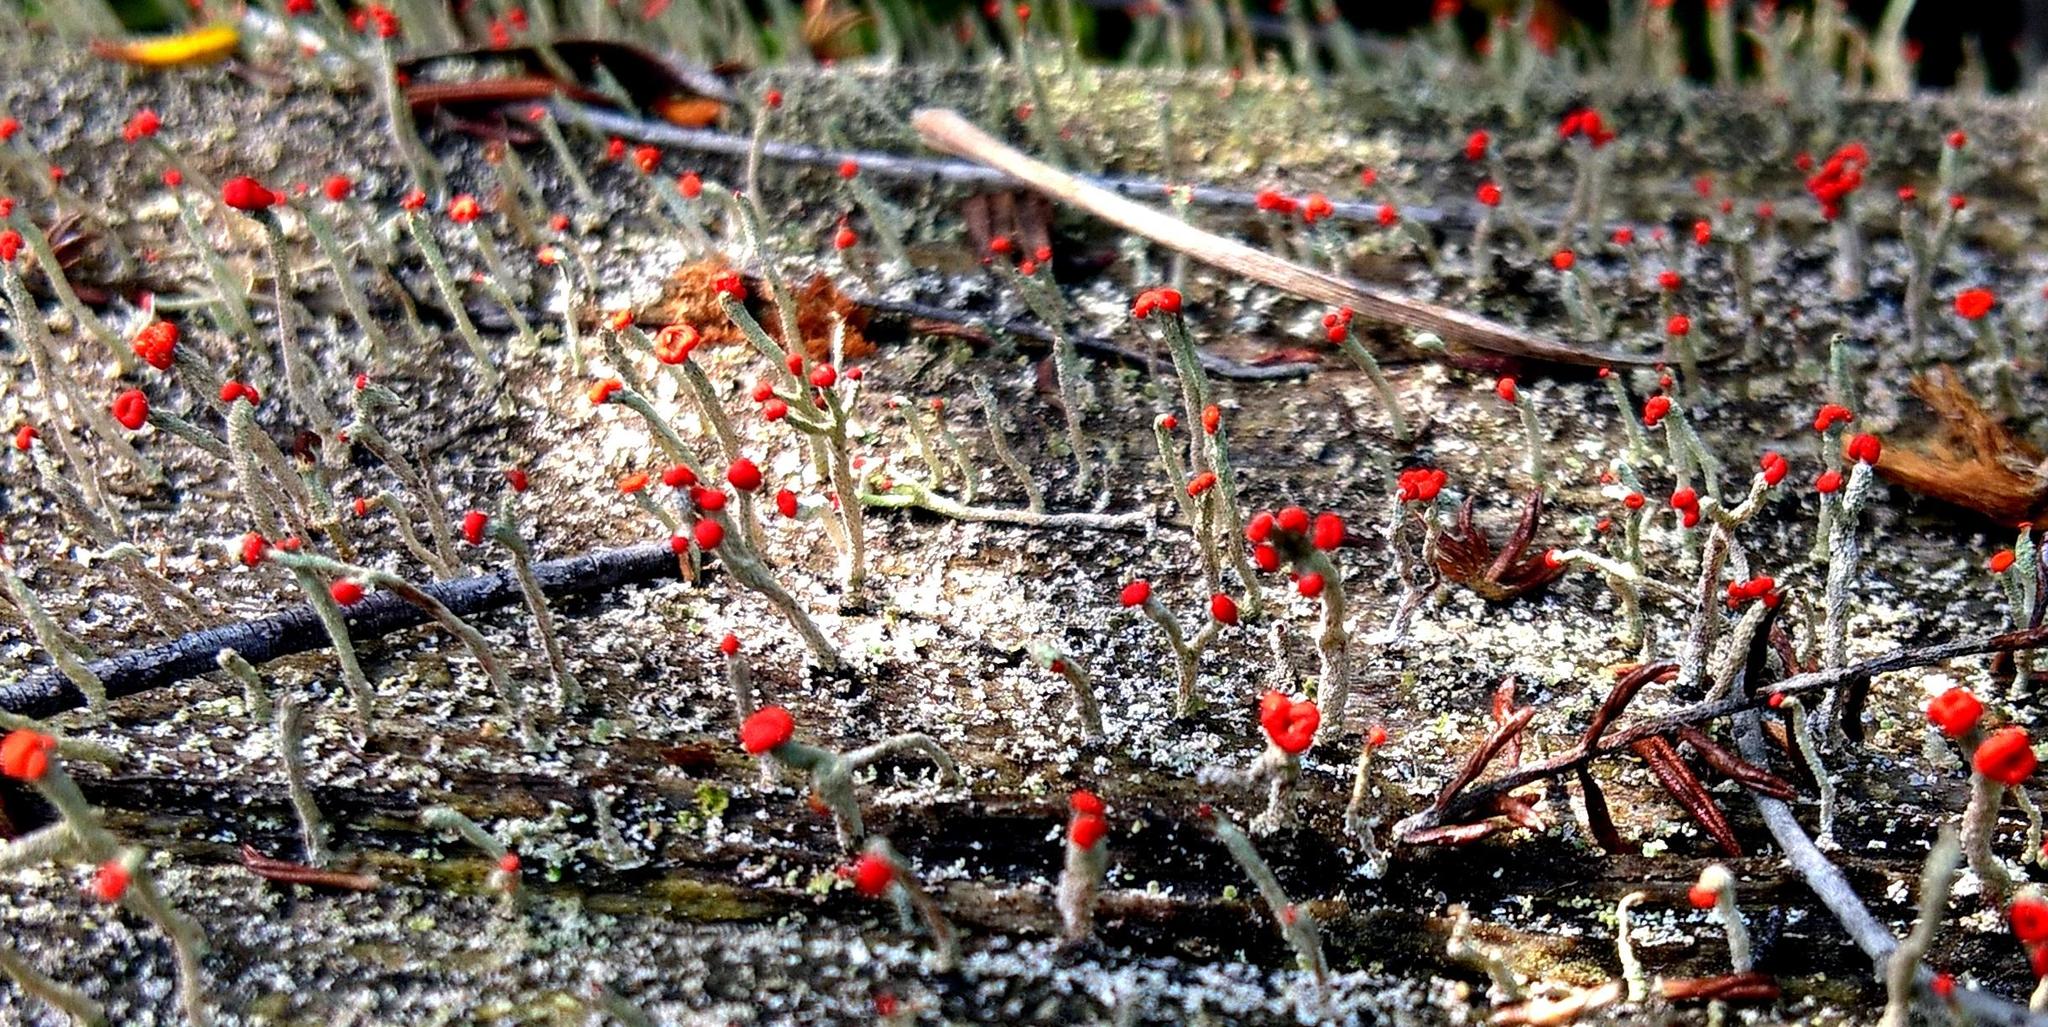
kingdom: Fungi
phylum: Ascomycota
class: Lecanoromycetes
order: Lecanorales
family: Cladoniaceae
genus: Cladonia
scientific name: Cladonia floerkeana
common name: Gritty british soldiers lichen
